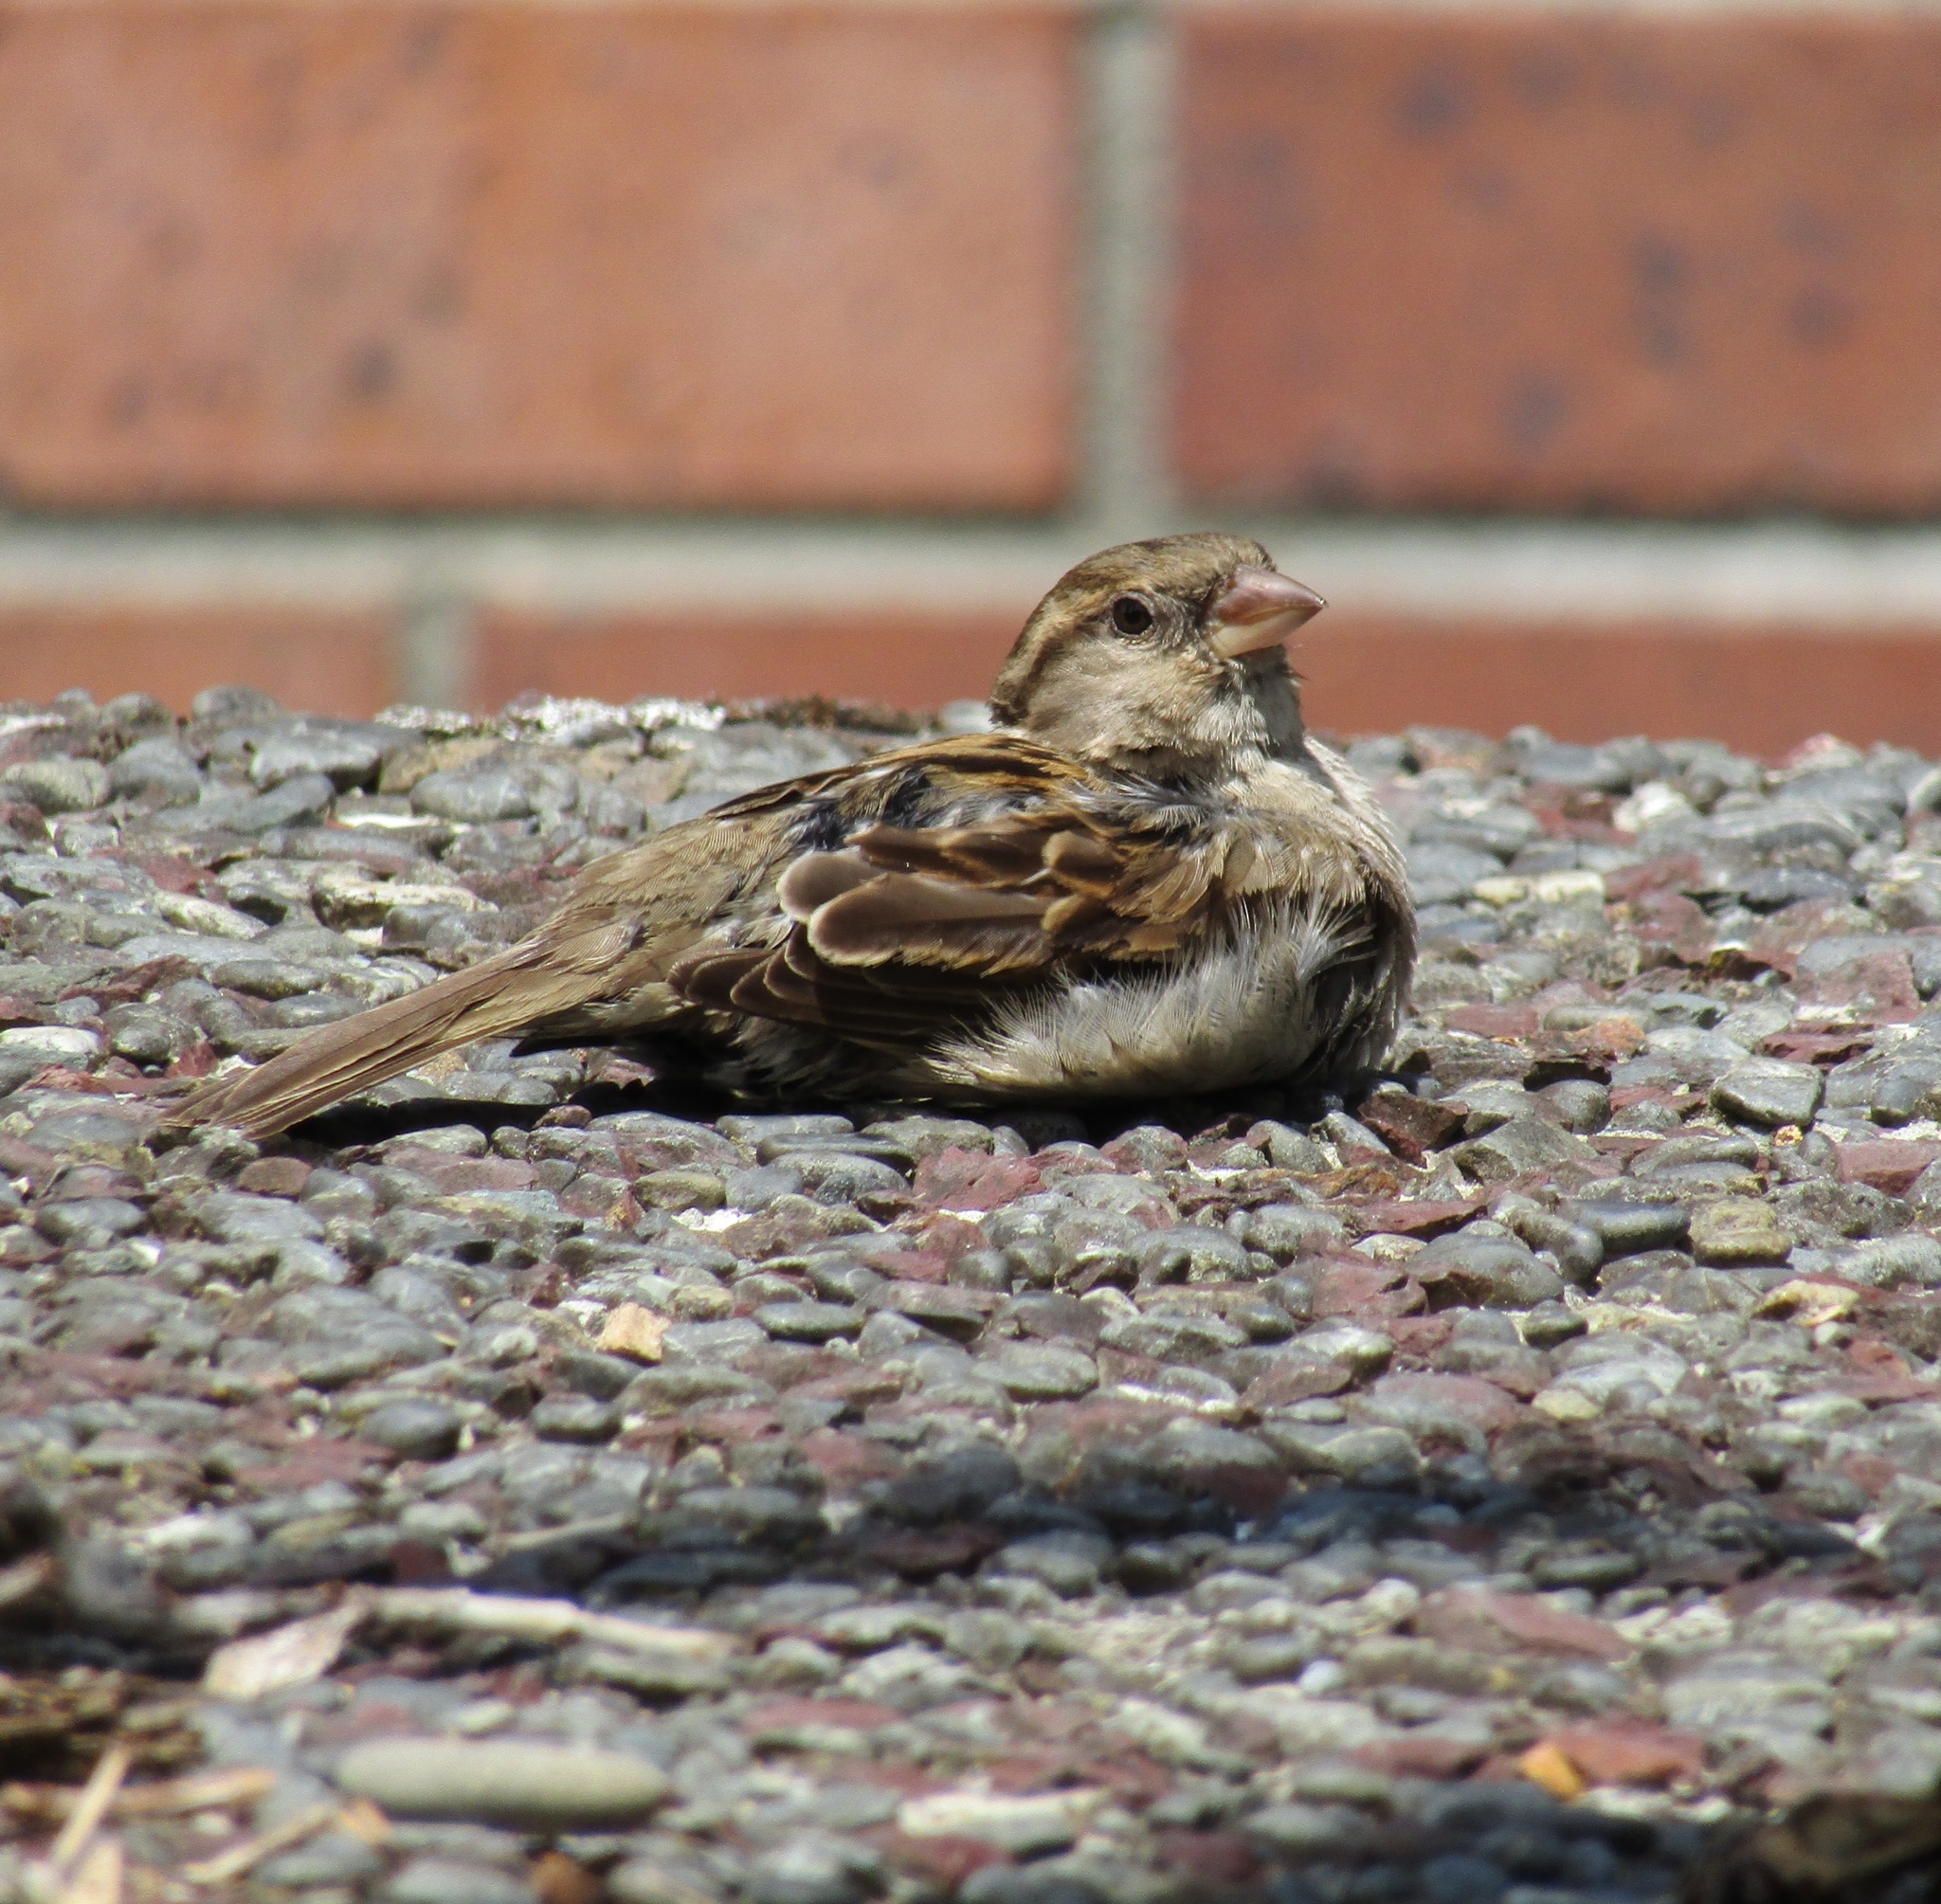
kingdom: Animalia
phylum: Chordata
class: Aves
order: Passeriformes
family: Passeridae
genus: Passer
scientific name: Passer domesticus
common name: House sparrow
